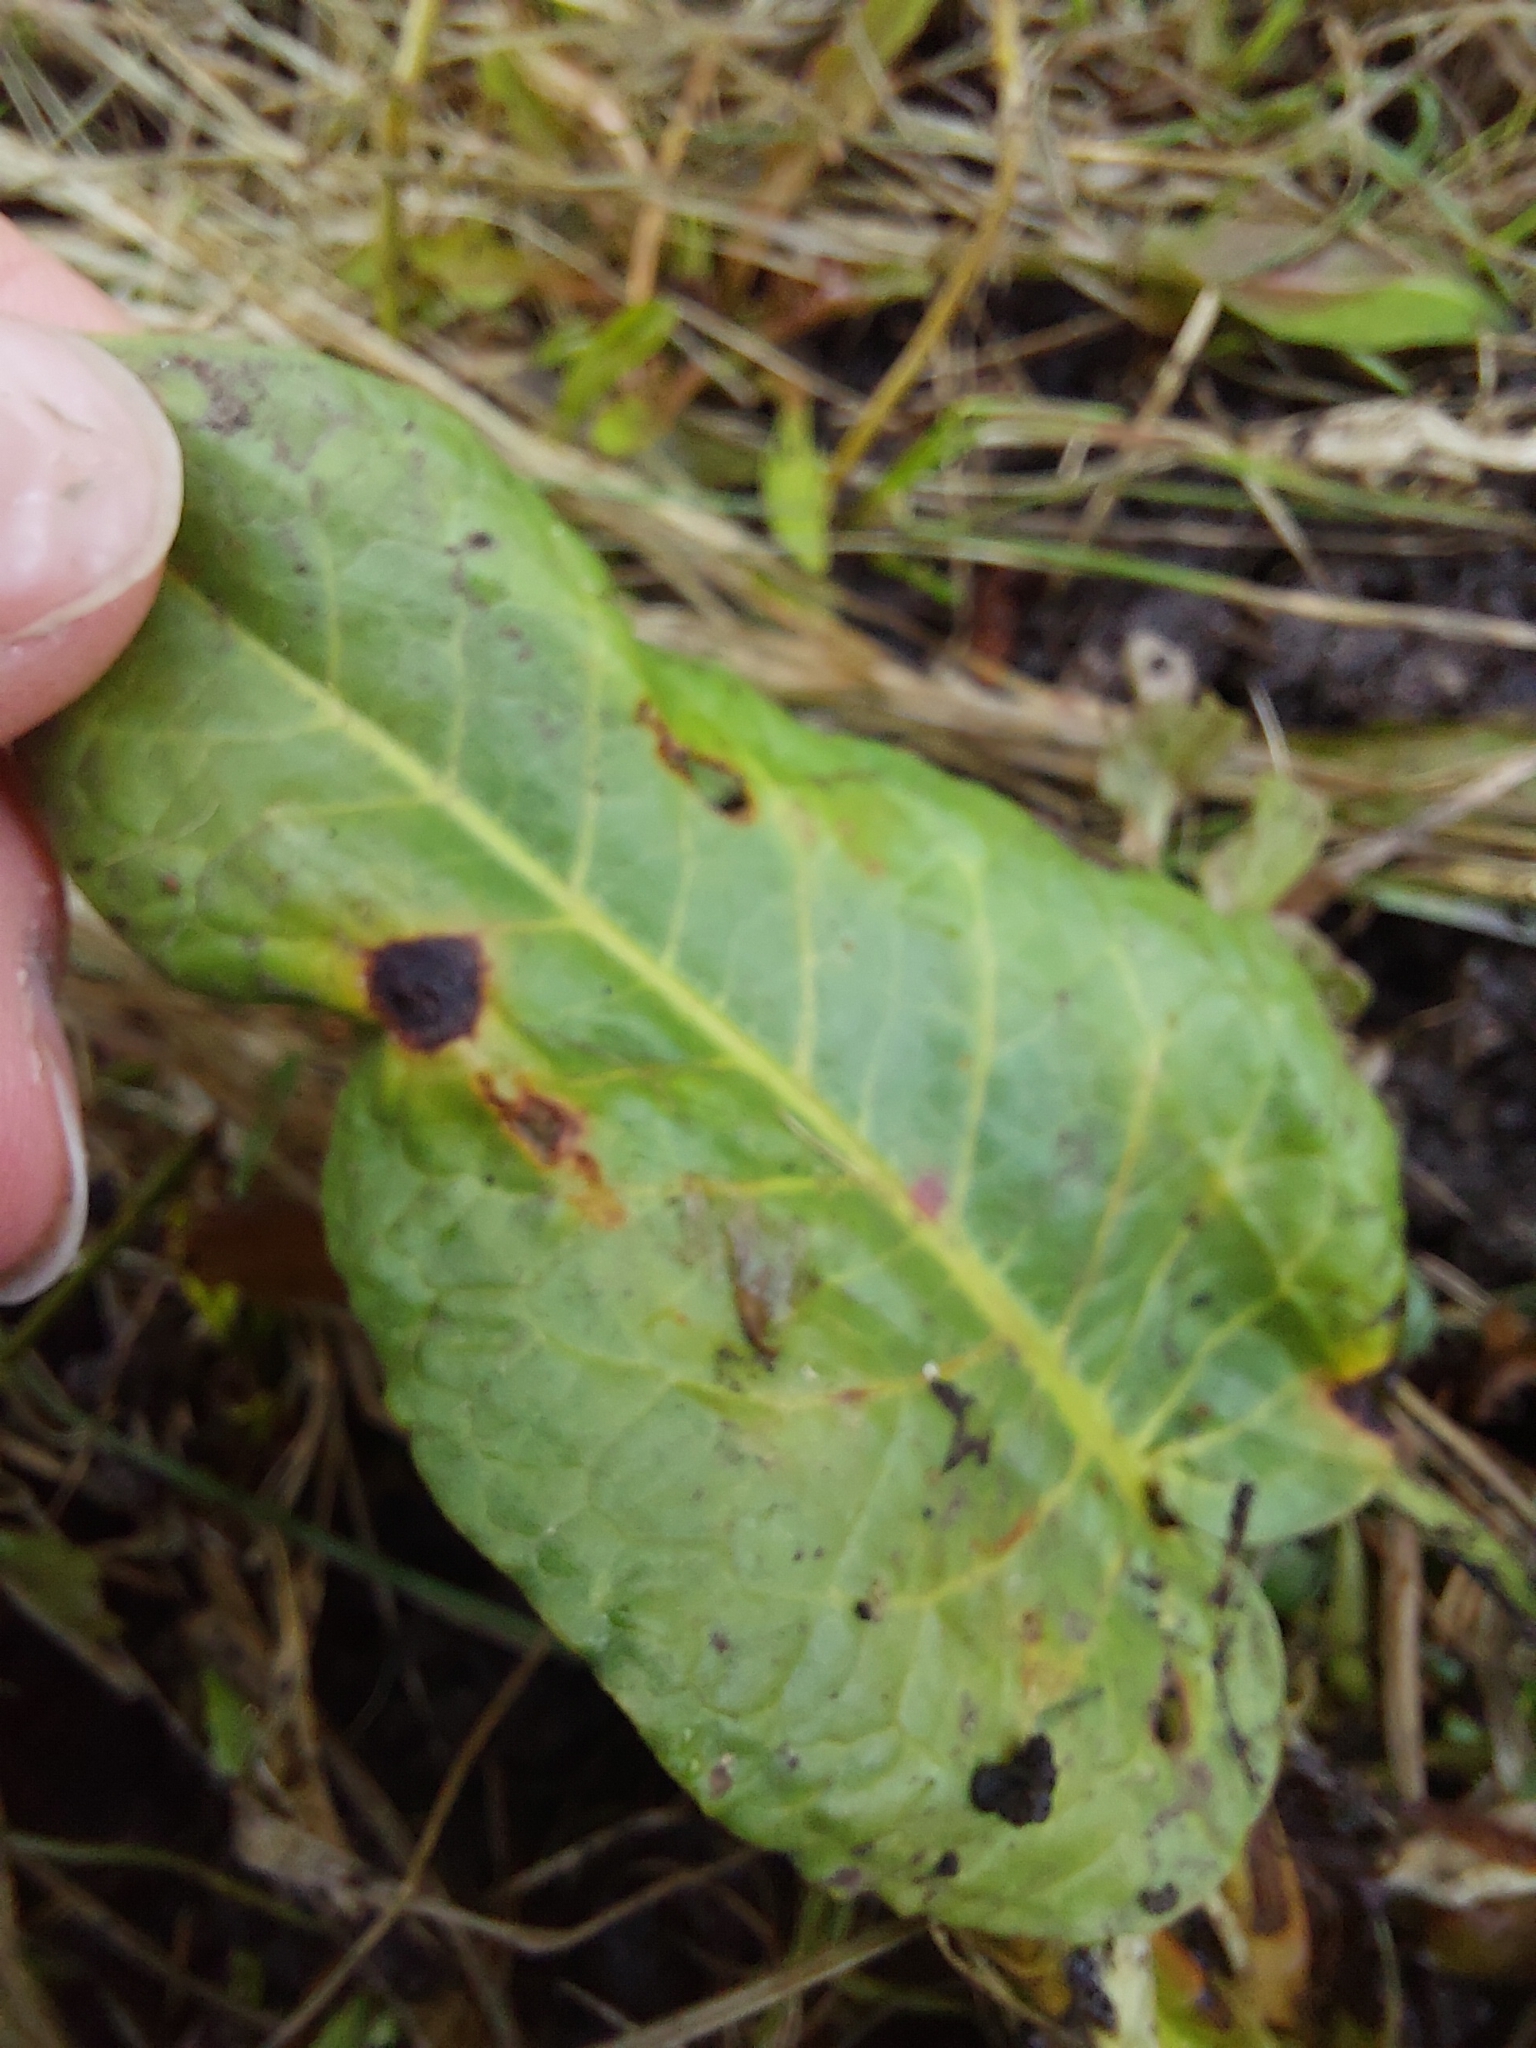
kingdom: Plantae
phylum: Tracheophyta
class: Magnoliopsida
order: Caryophyllales
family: Polygonaceae
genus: Rumex
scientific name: Rumex obtusifolius
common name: Bitter dock
